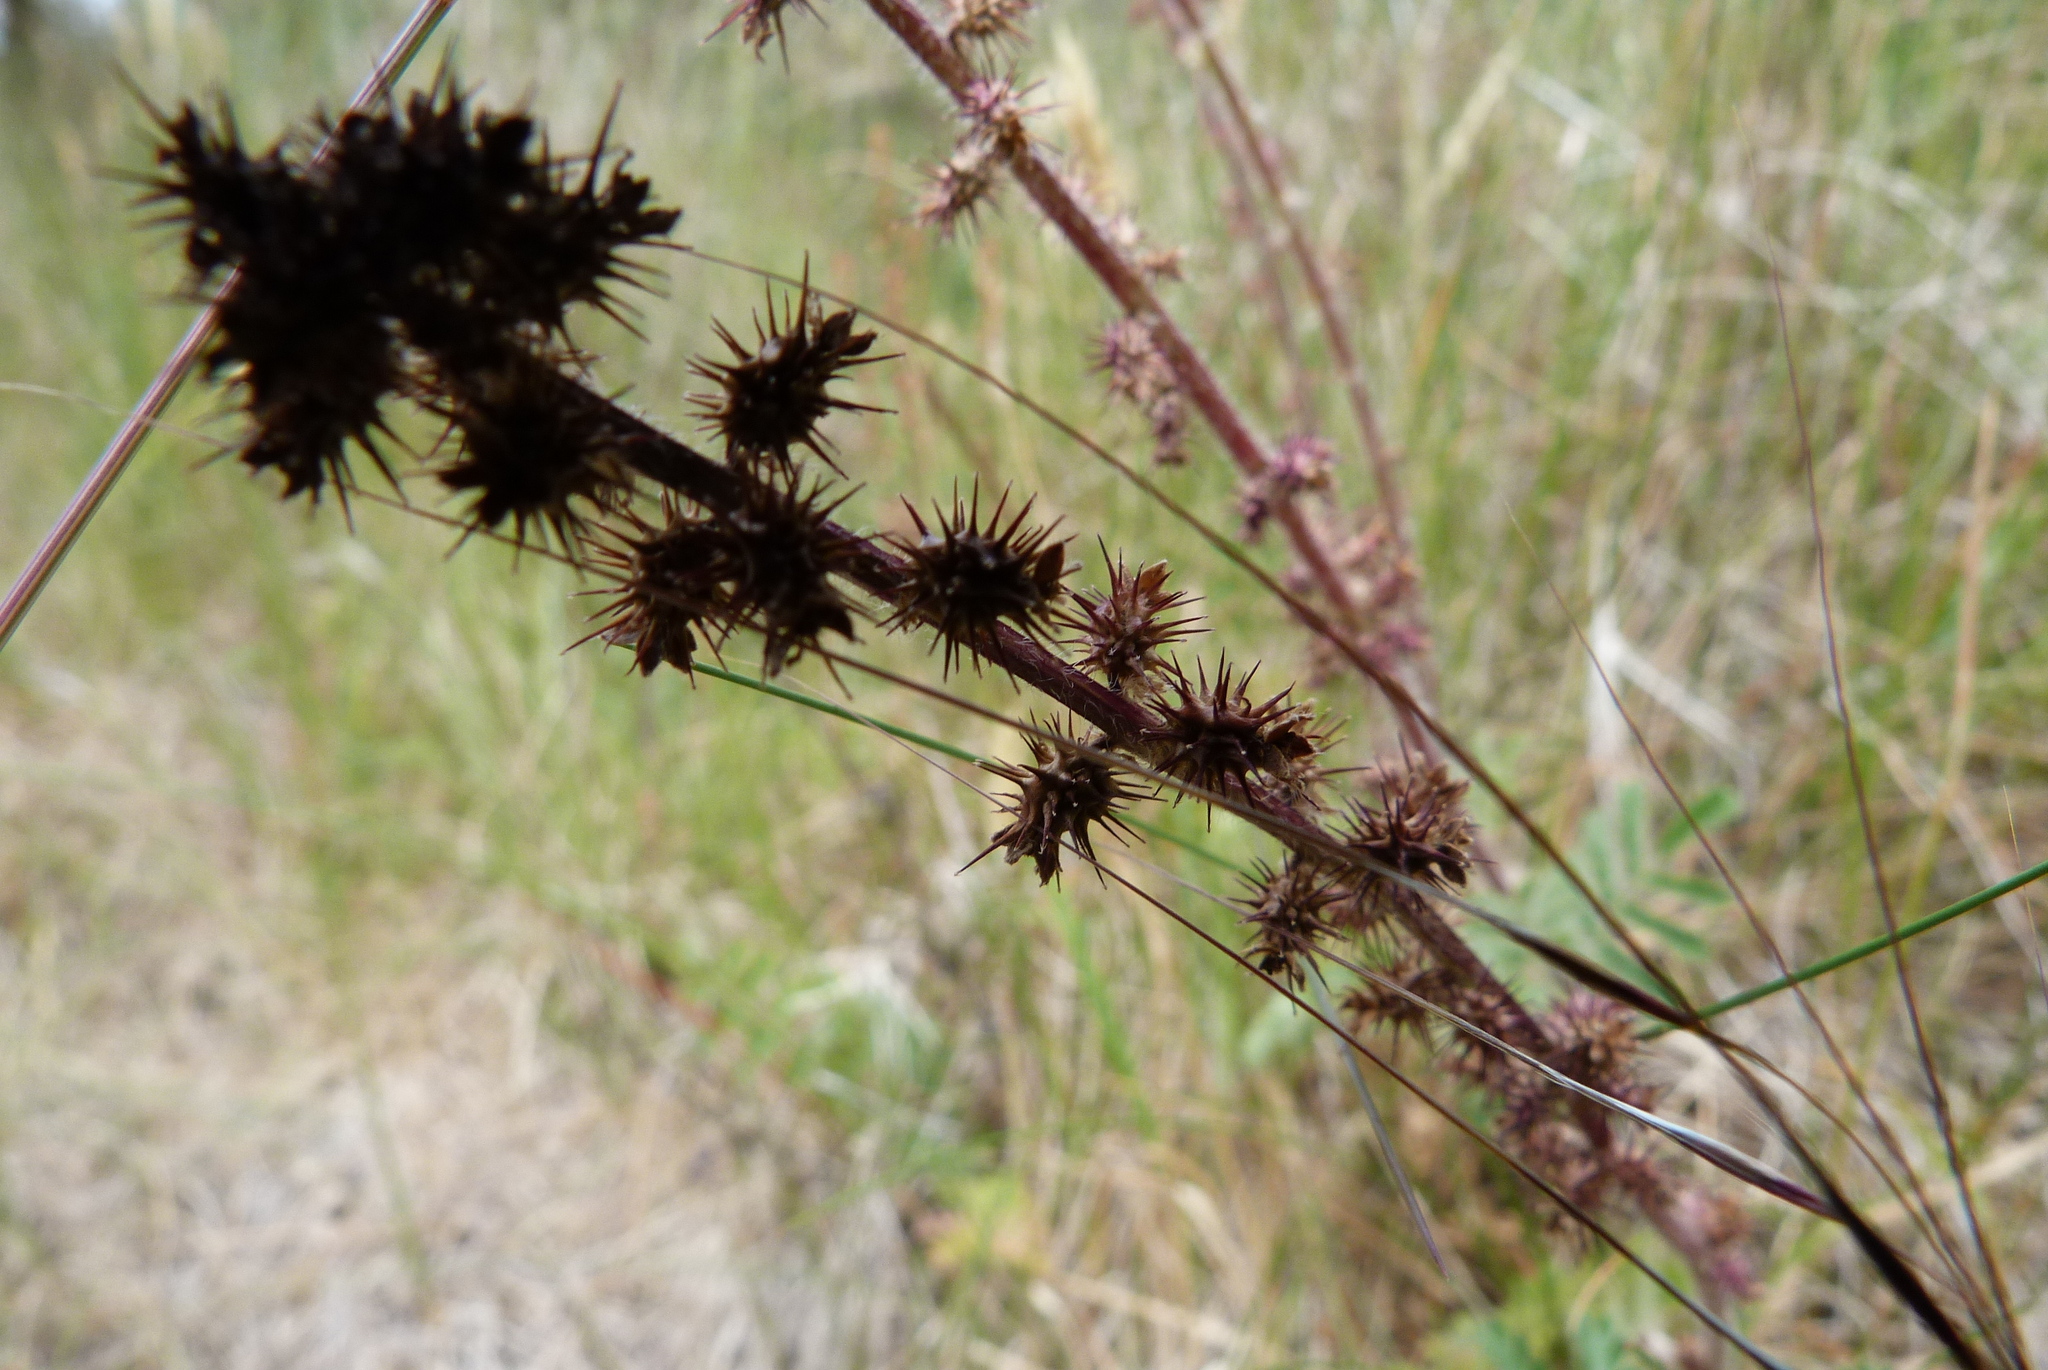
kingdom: Plantae
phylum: Tracheophyta
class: Magnoliopsida
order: Rosales
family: Rosaceae
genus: Acaena
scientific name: Acaena agnipila
